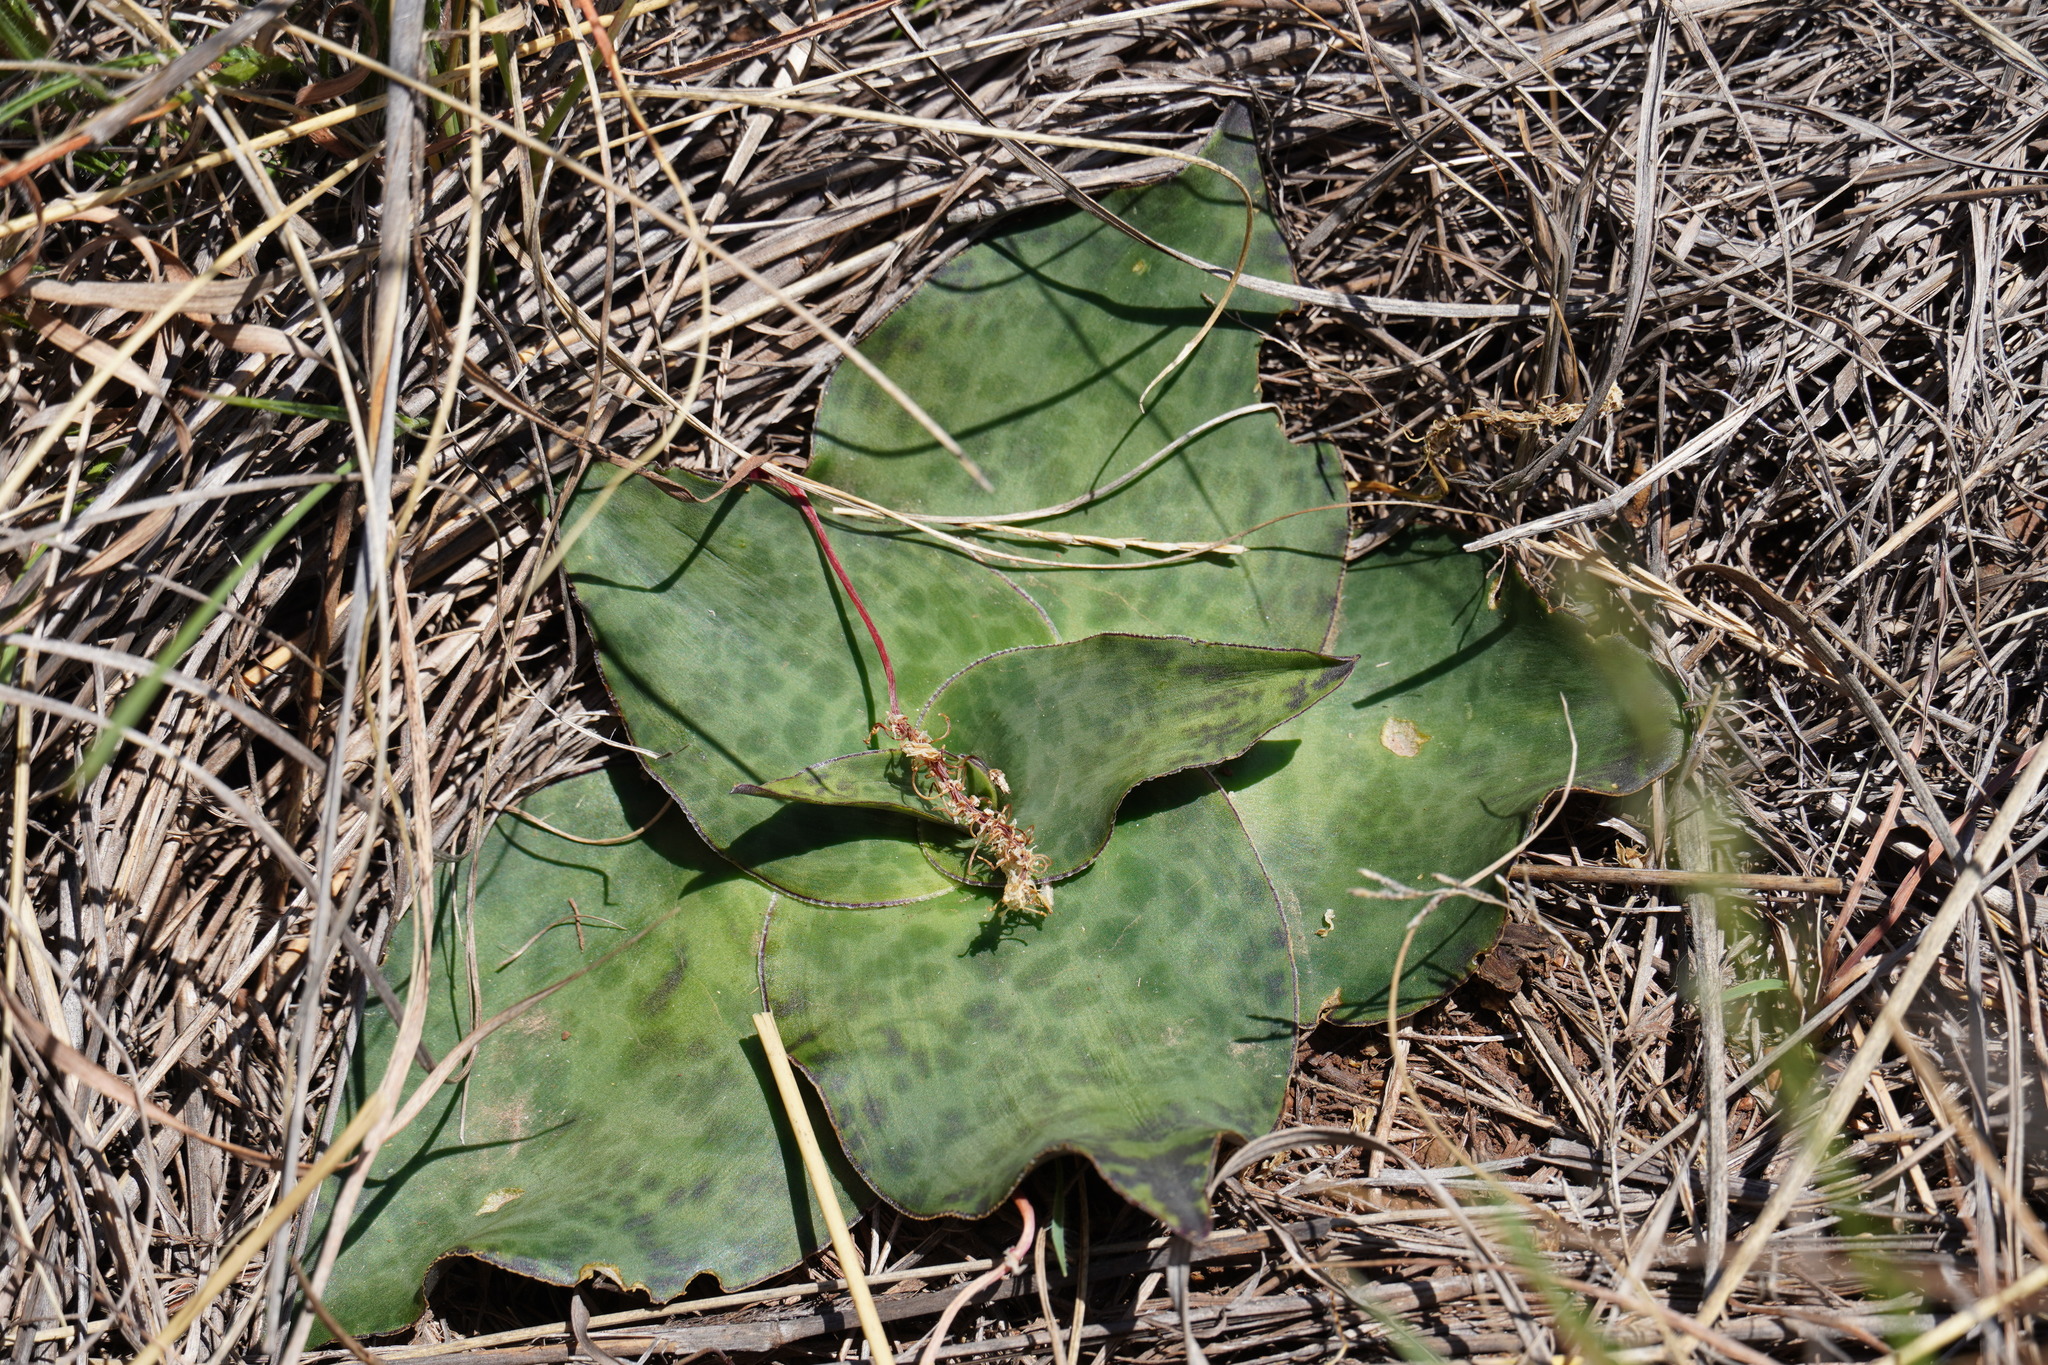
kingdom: Plantae
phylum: Tracheophyta
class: Liliopsida
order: Asparagales
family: Asparagaceae
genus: Ledebouria
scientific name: Ledebouria ovatifolia
